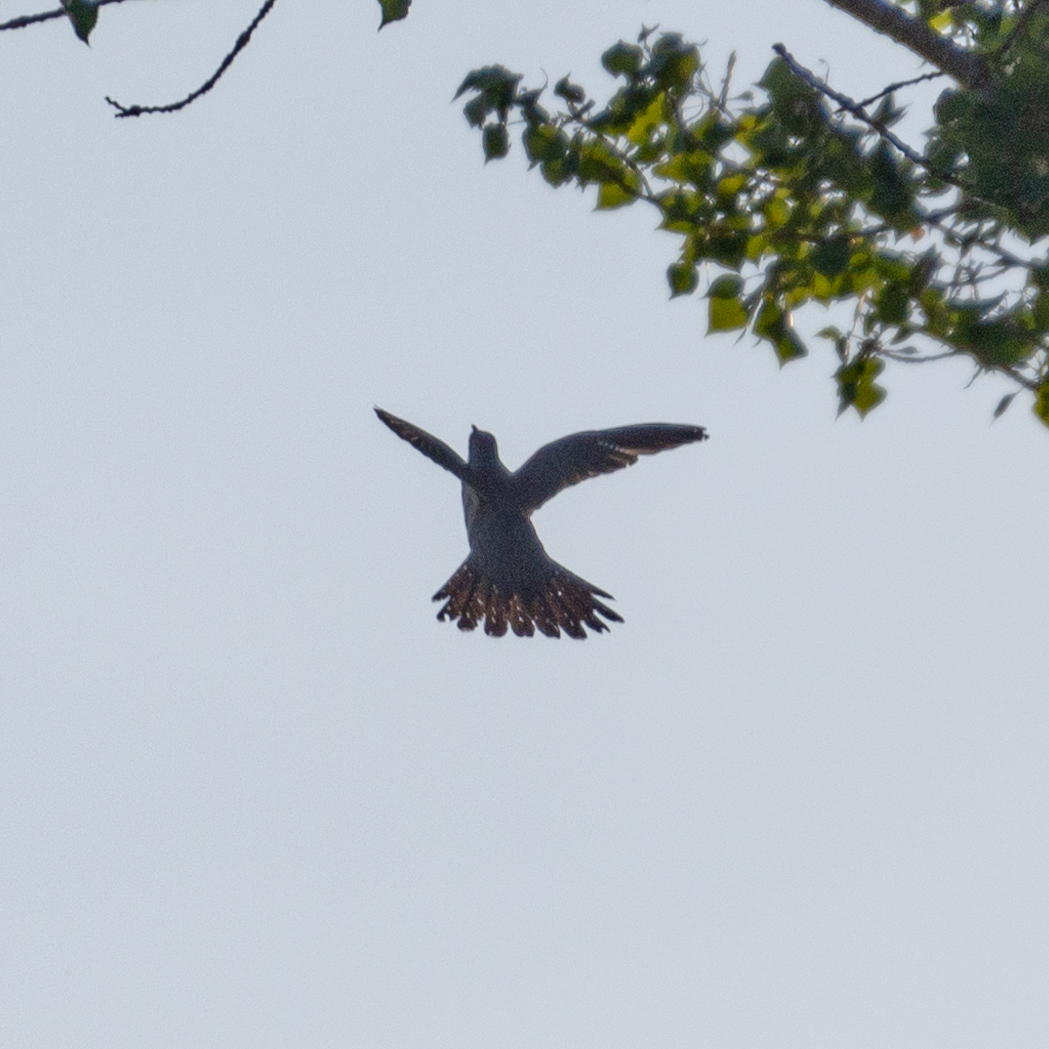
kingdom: Animalia
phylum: Chordata
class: Aves
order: Cuculiformes
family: Cuculidae
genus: Cuculus
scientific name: Cuculus canorus
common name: Common cuckoo
